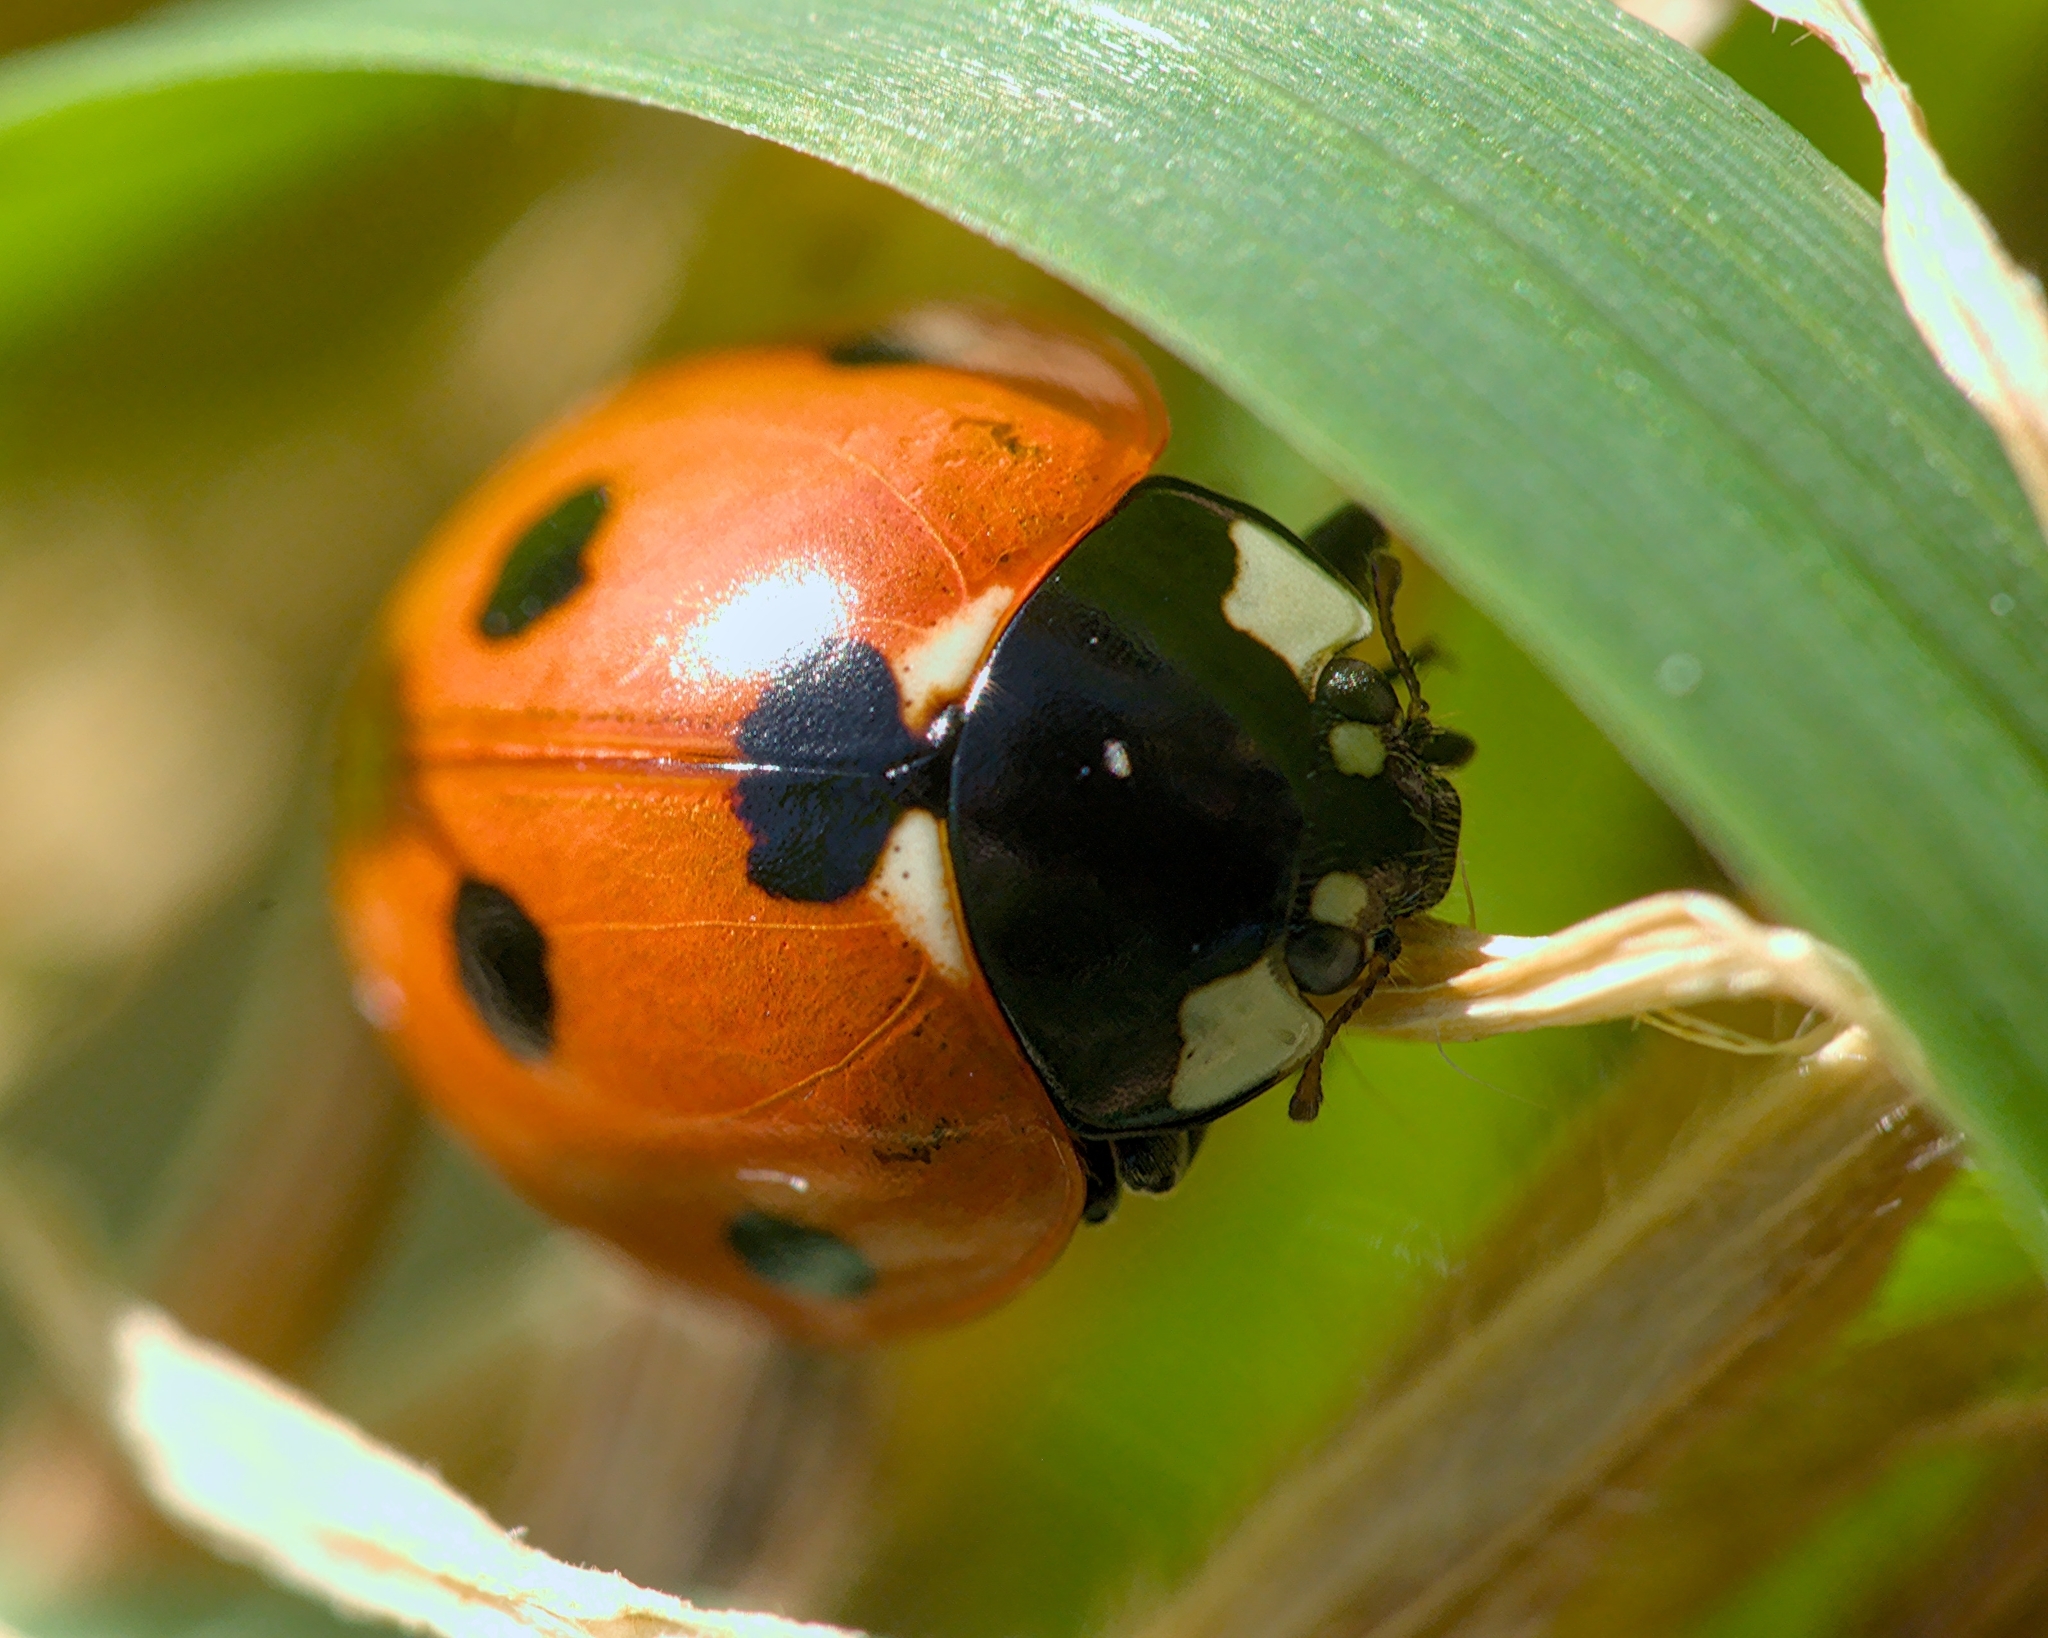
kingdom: Animalia
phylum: Arthropoda
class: Insecta
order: Coleoptera
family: Coccinellidae
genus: Coccinella
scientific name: Coccinella septempunctata
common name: Sevenspotted lady beetle
